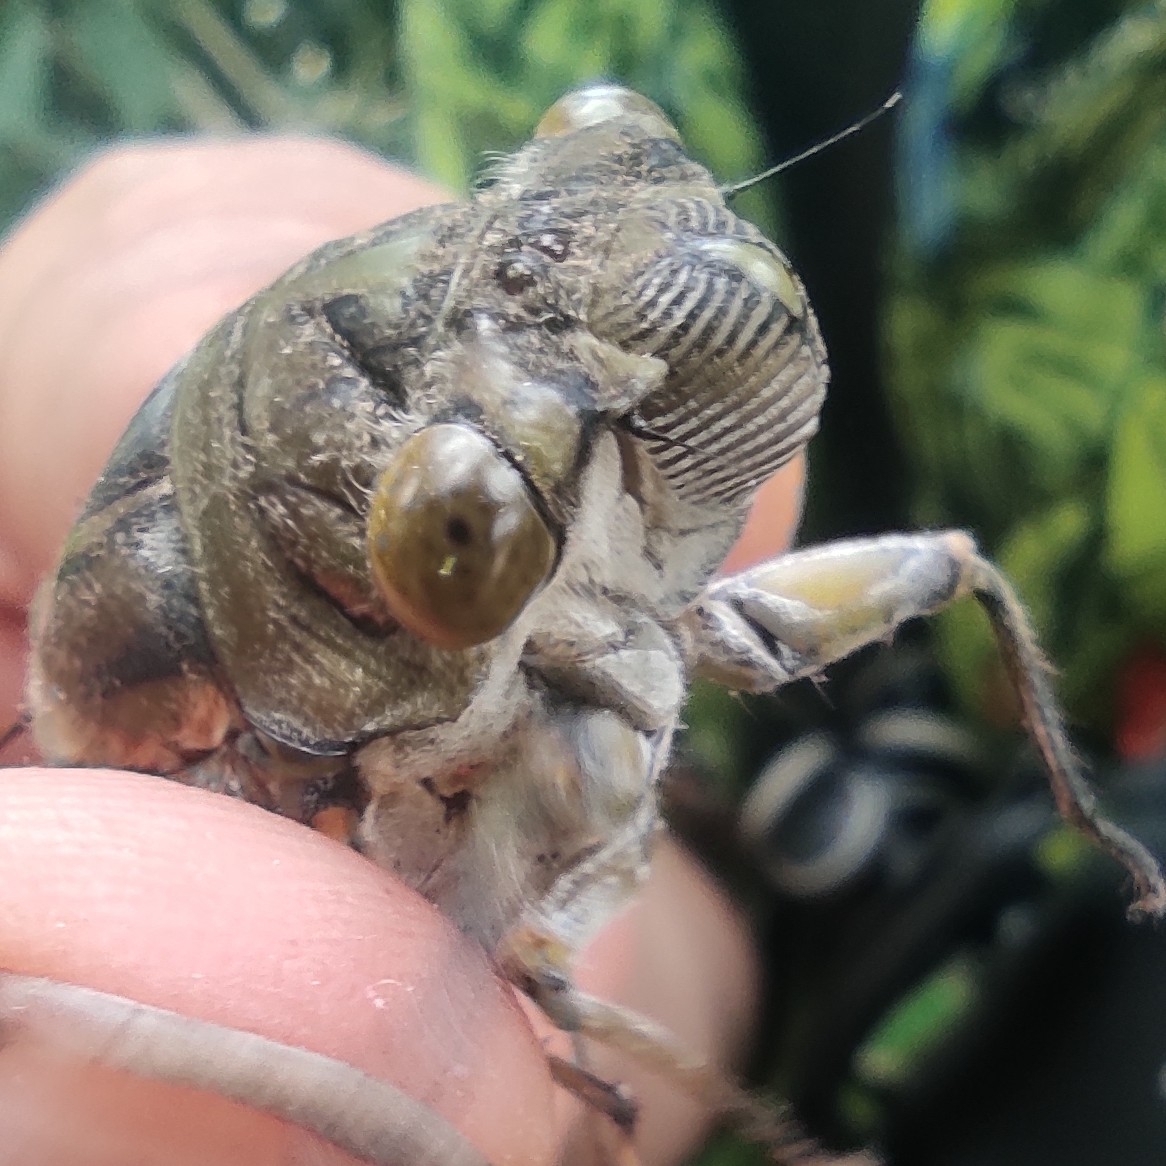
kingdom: Animalia
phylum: Arthropoda
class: Insecta
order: Hemiptera
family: Cicadidae
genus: Quesada
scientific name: Quesada gigas
